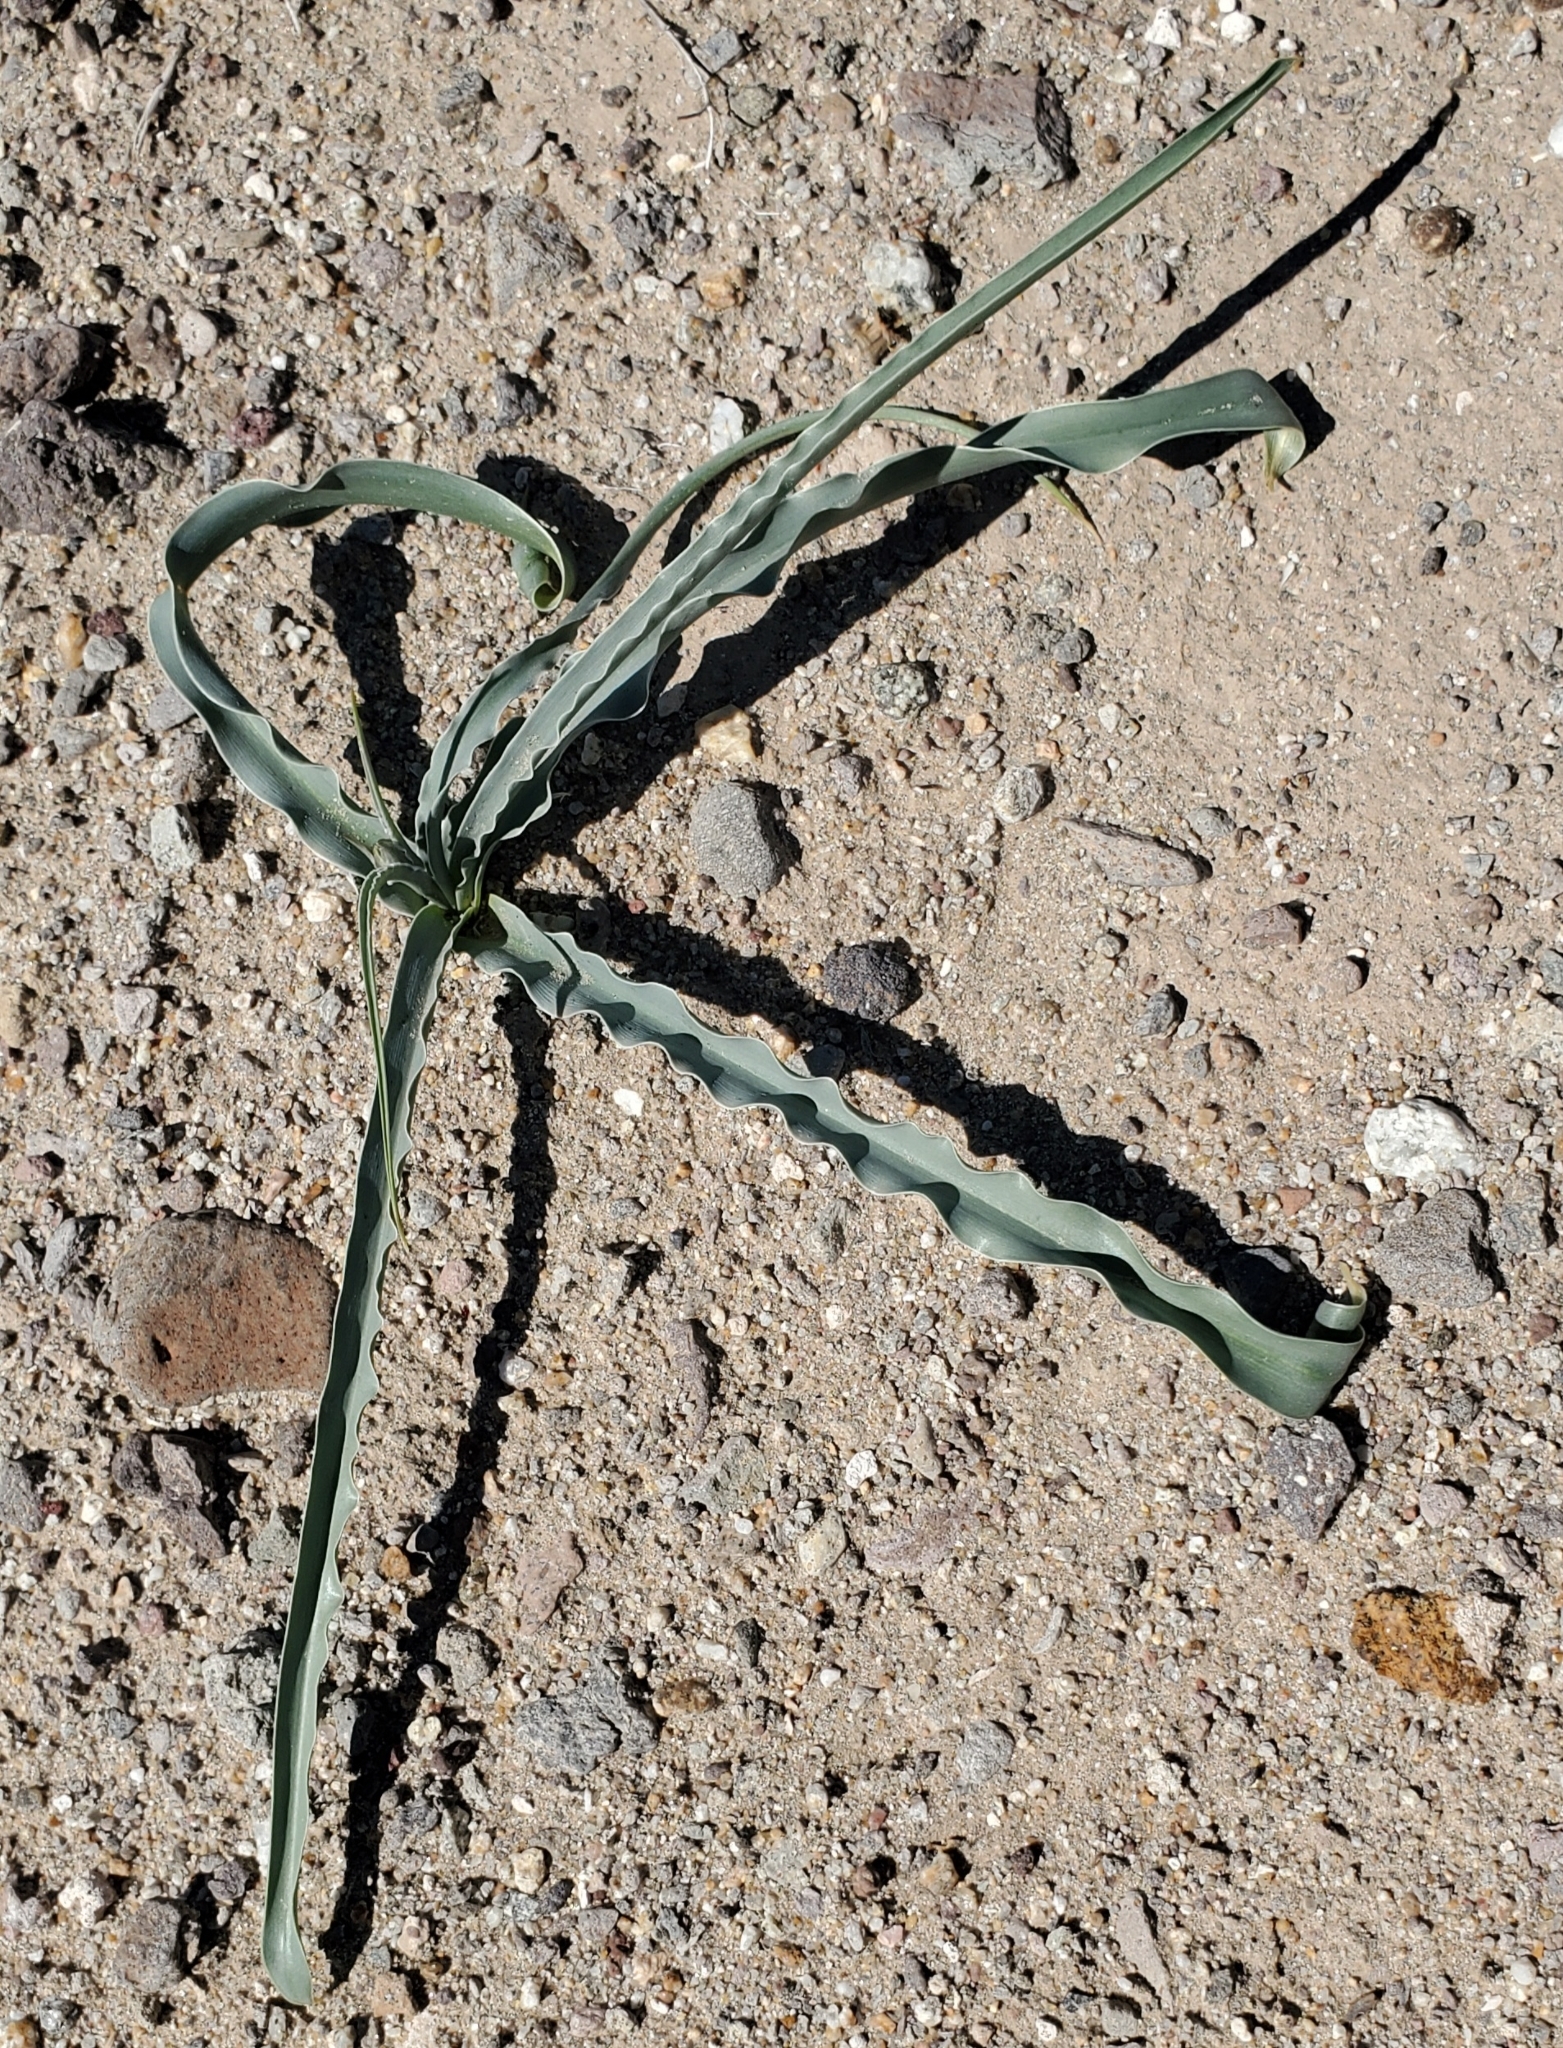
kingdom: Plantae
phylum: Tracheophyta
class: Liliopsida
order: Asparagales
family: Asparagaceae
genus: Hesperocallis
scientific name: Hesperocallis undulata
